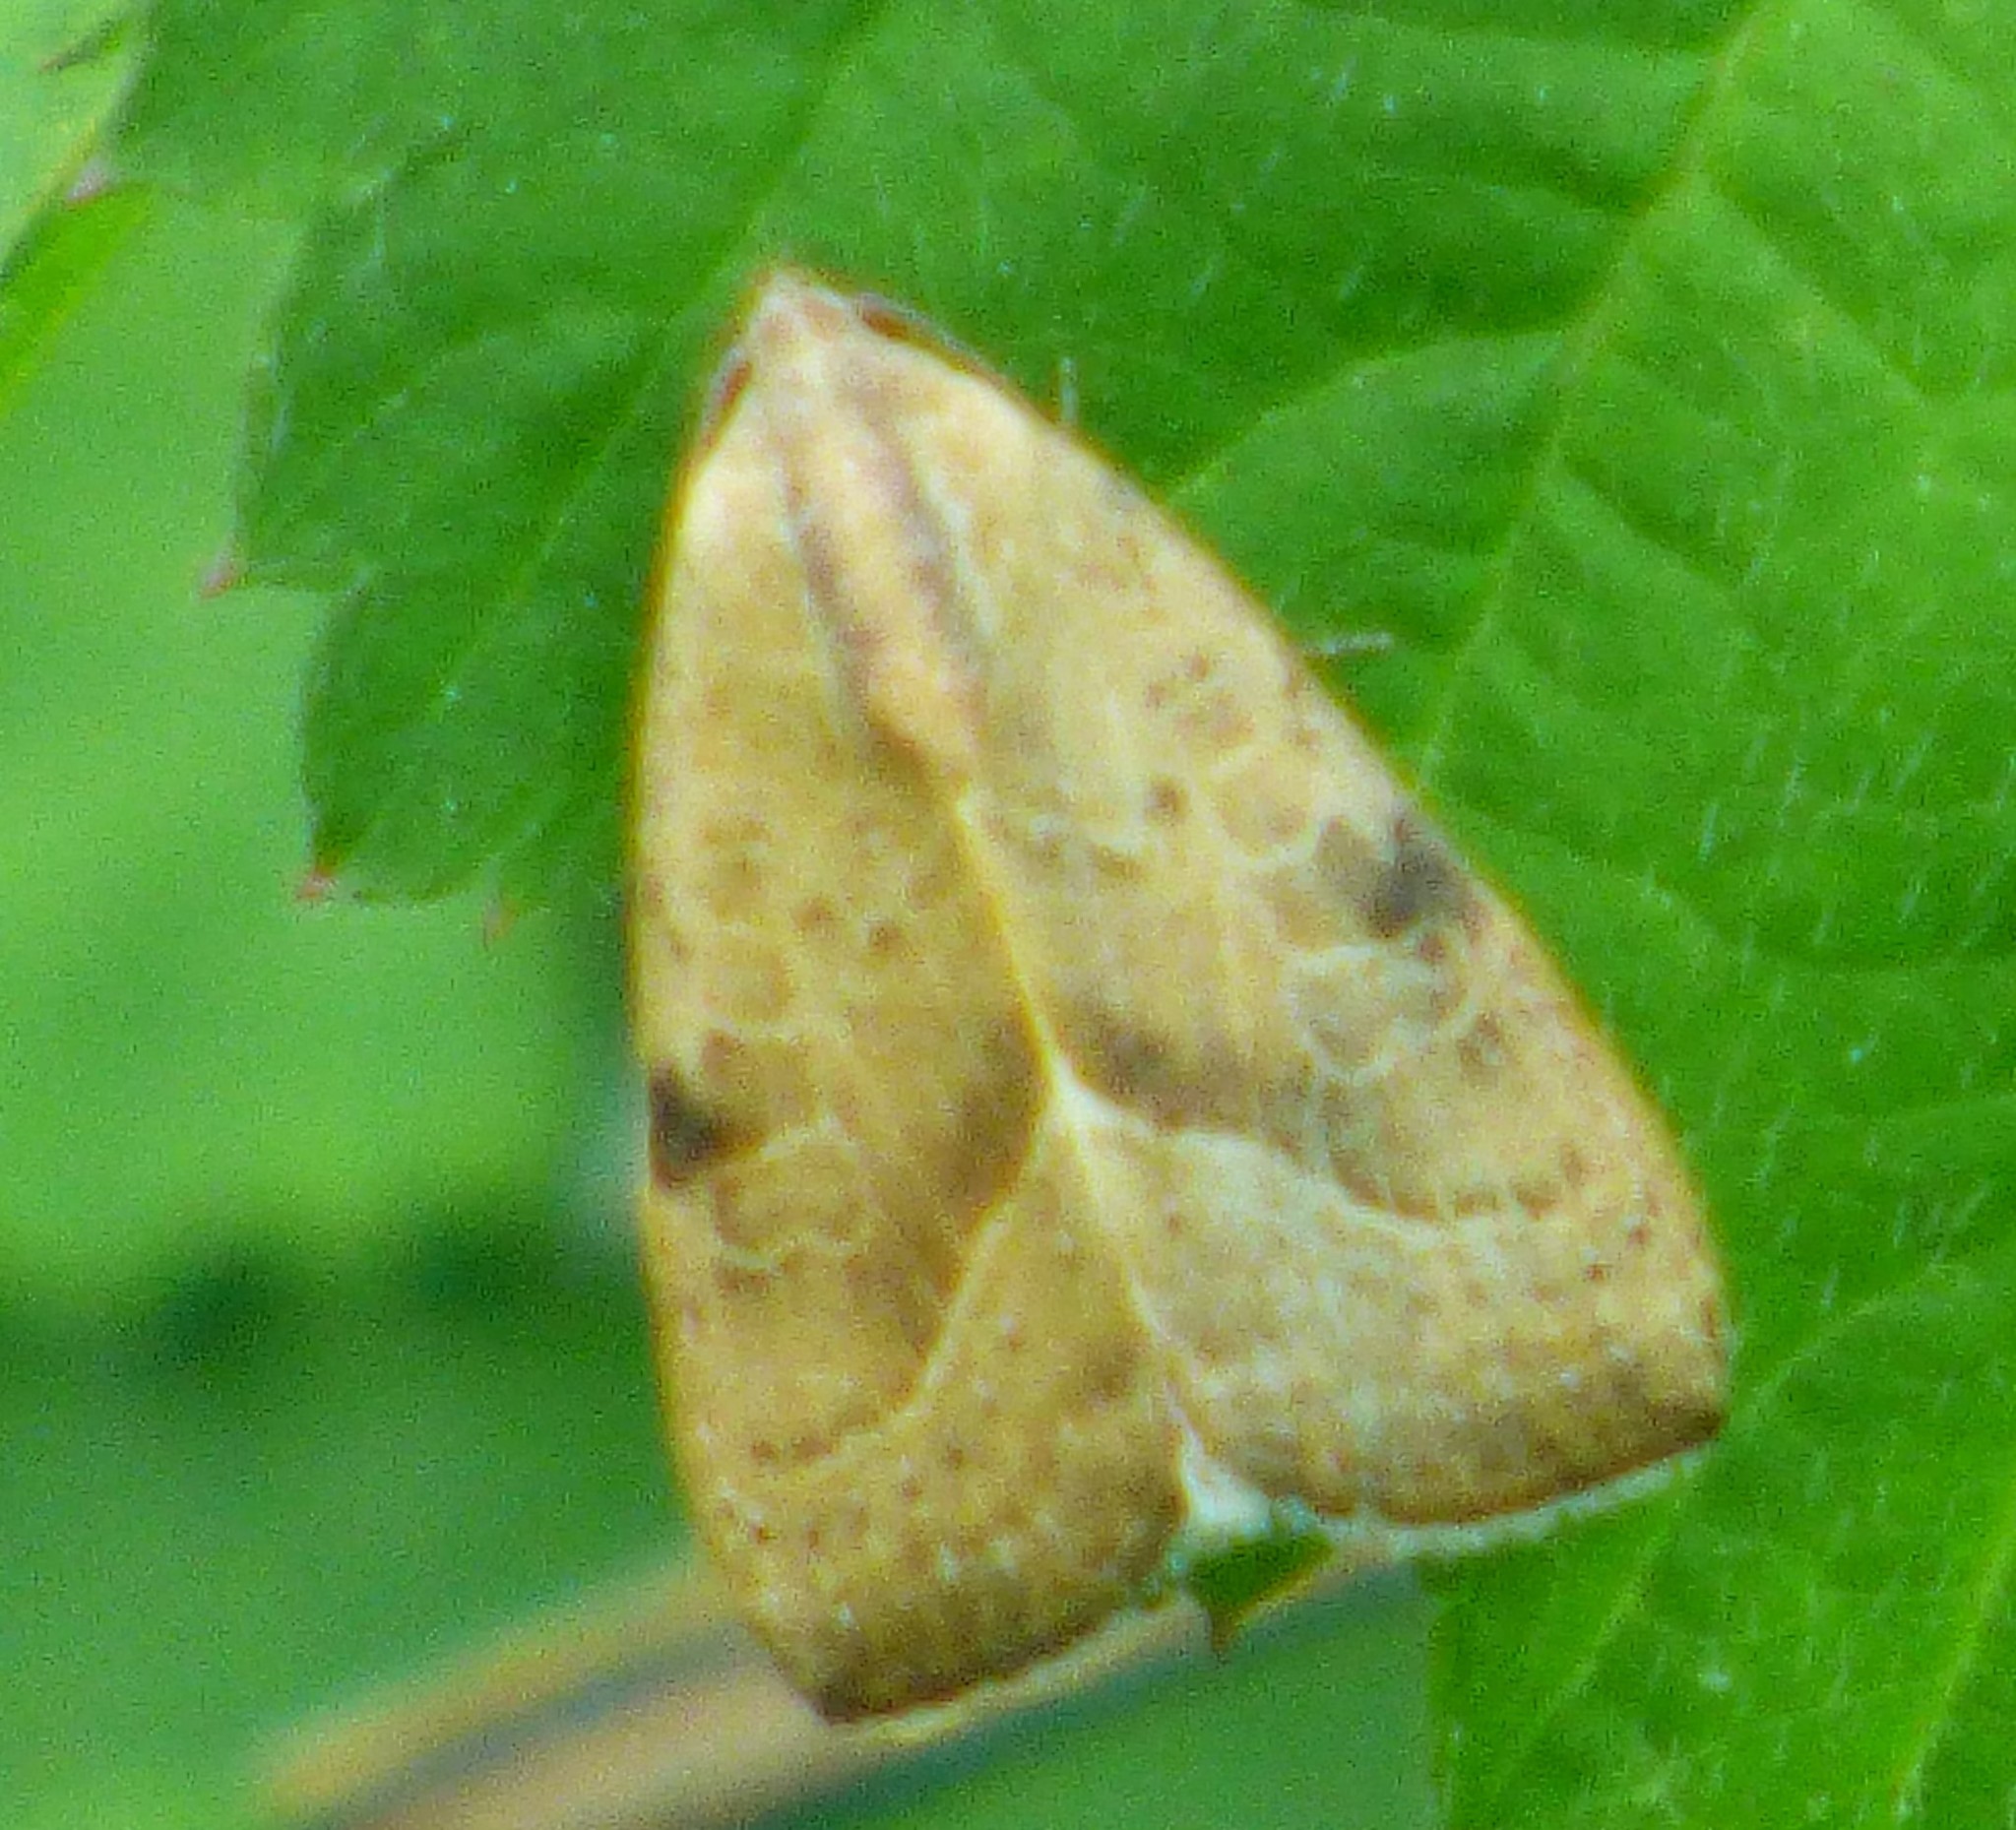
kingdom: Animalia
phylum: Arthropoda
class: Insecta
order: Lepidoptera
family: Noctuidae
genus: Galgula
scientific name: Galgula partita
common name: Wedgeling
